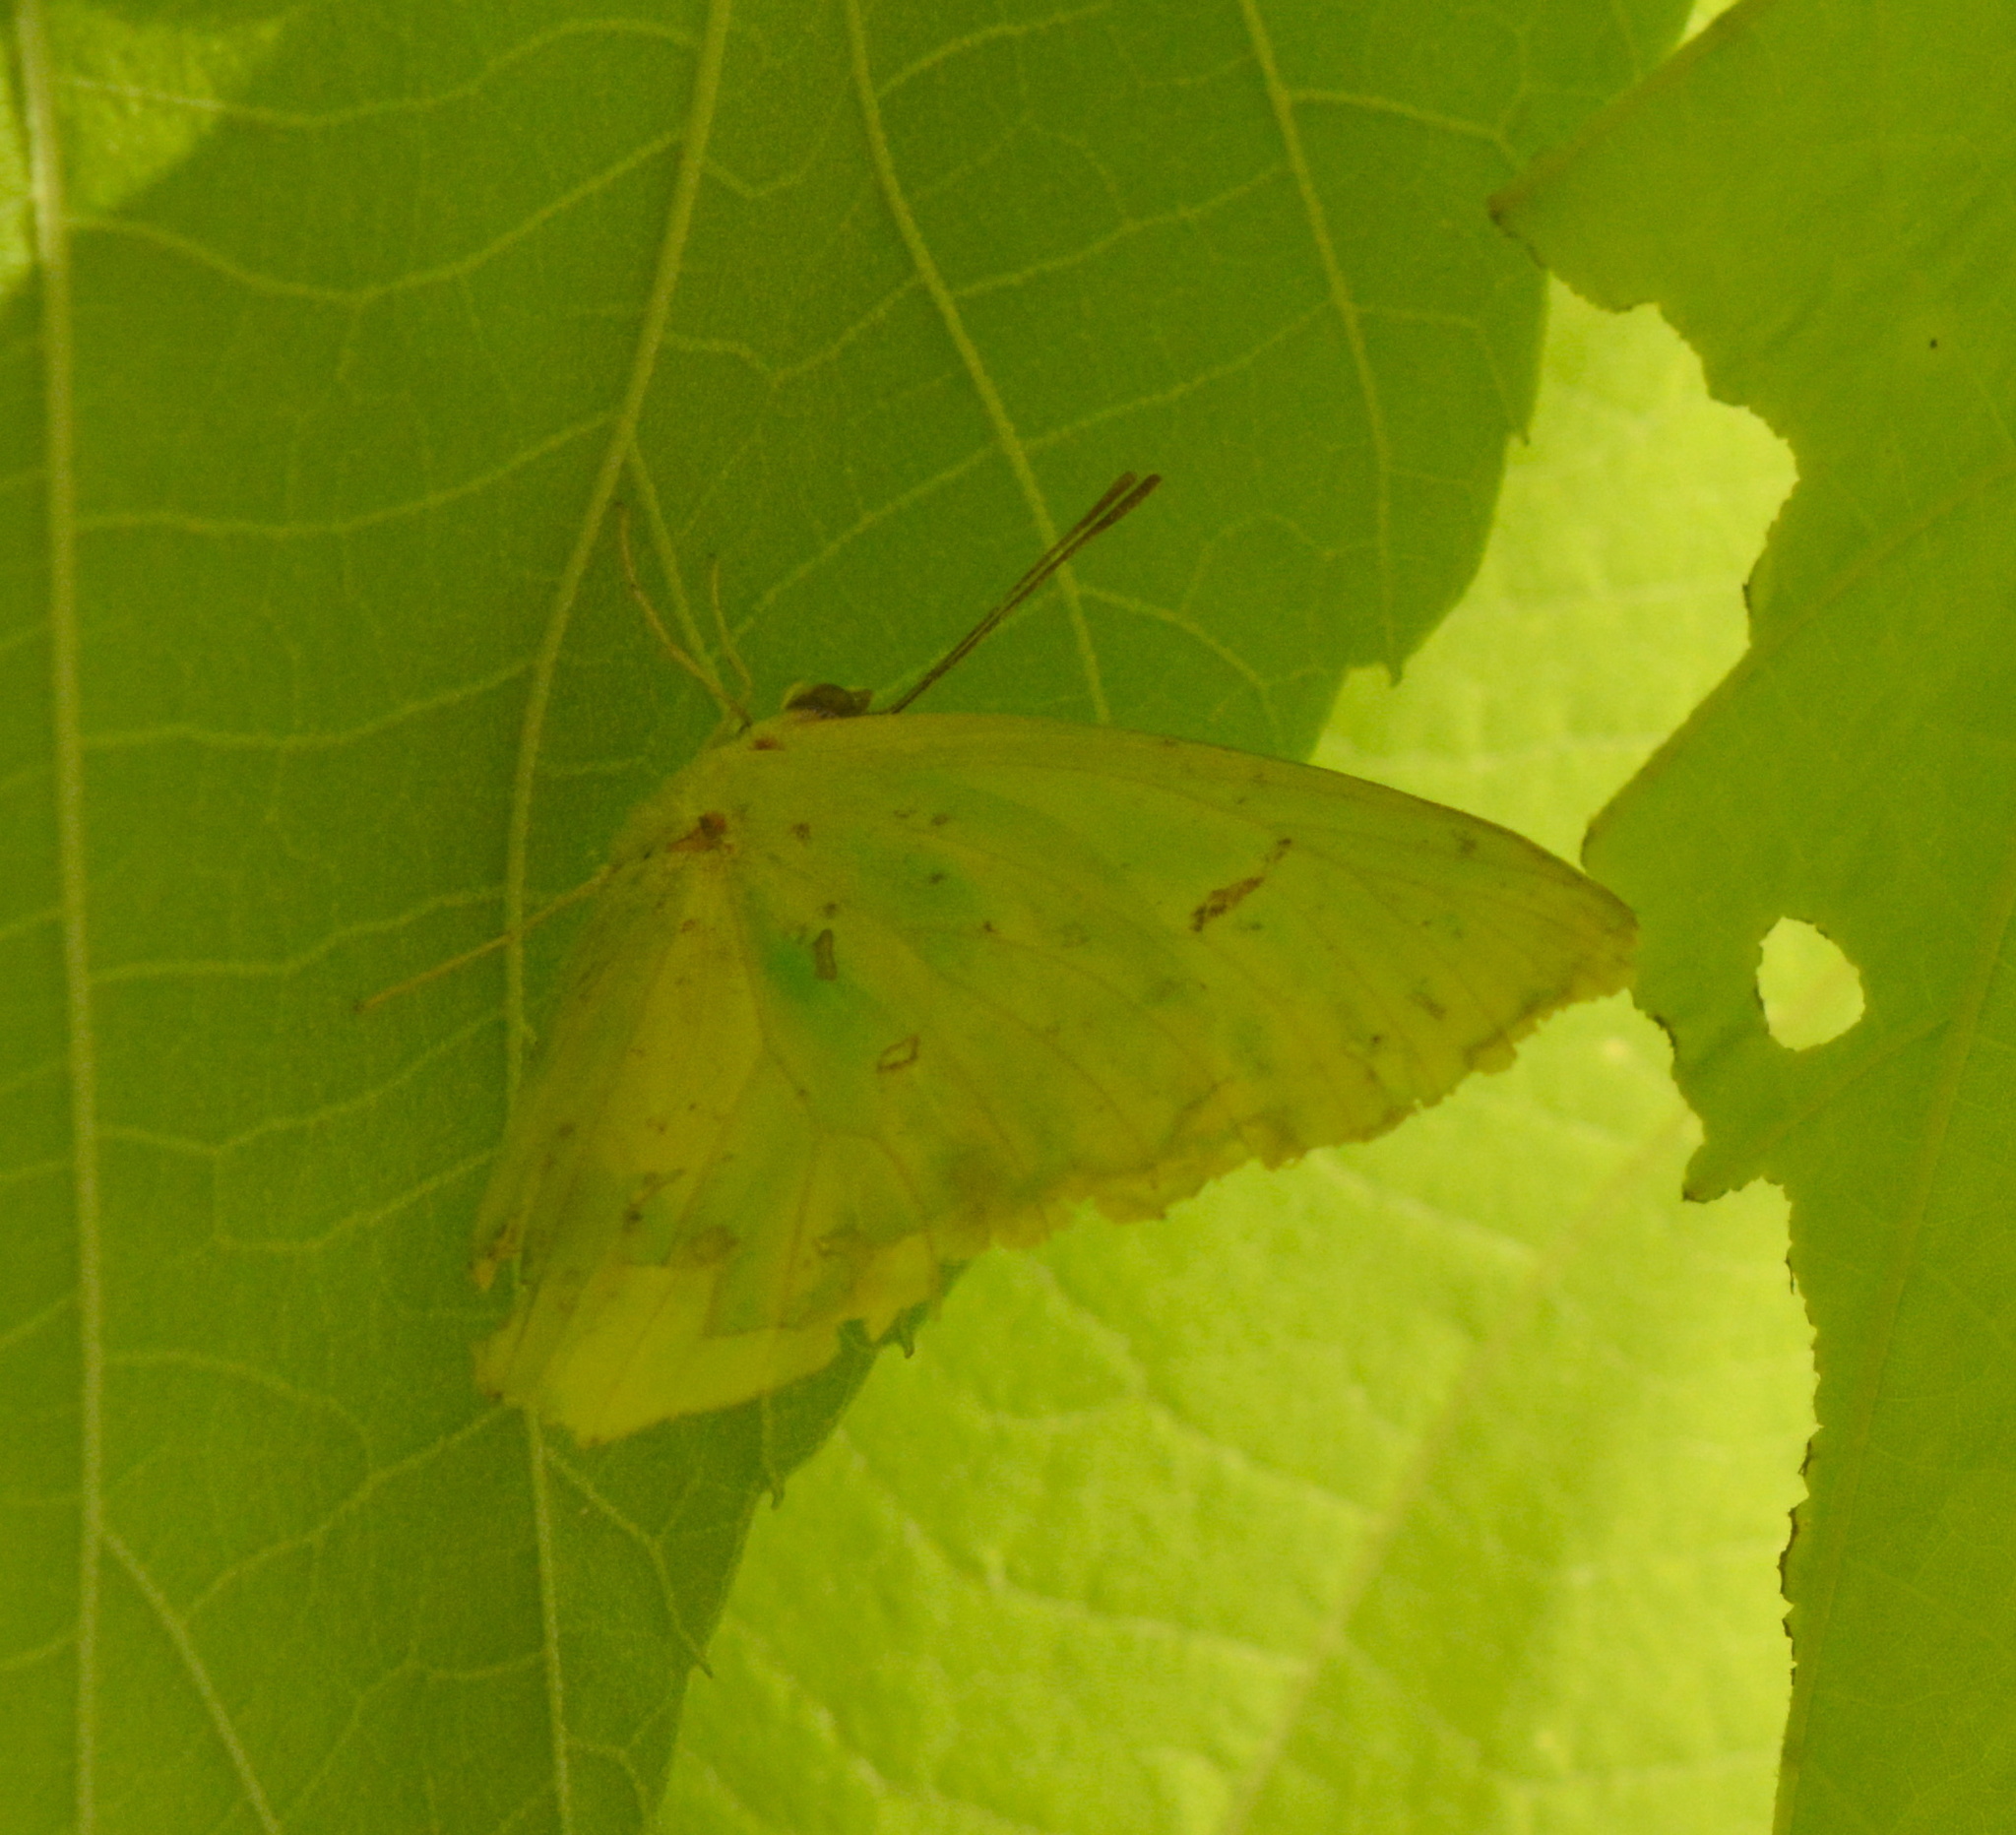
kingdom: Animalia
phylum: Arthropoda
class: Insecta
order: Lepidoptera
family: Pieridae
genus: Phoebis
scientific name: Phoebis sennae
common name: Cloudless sulphur
